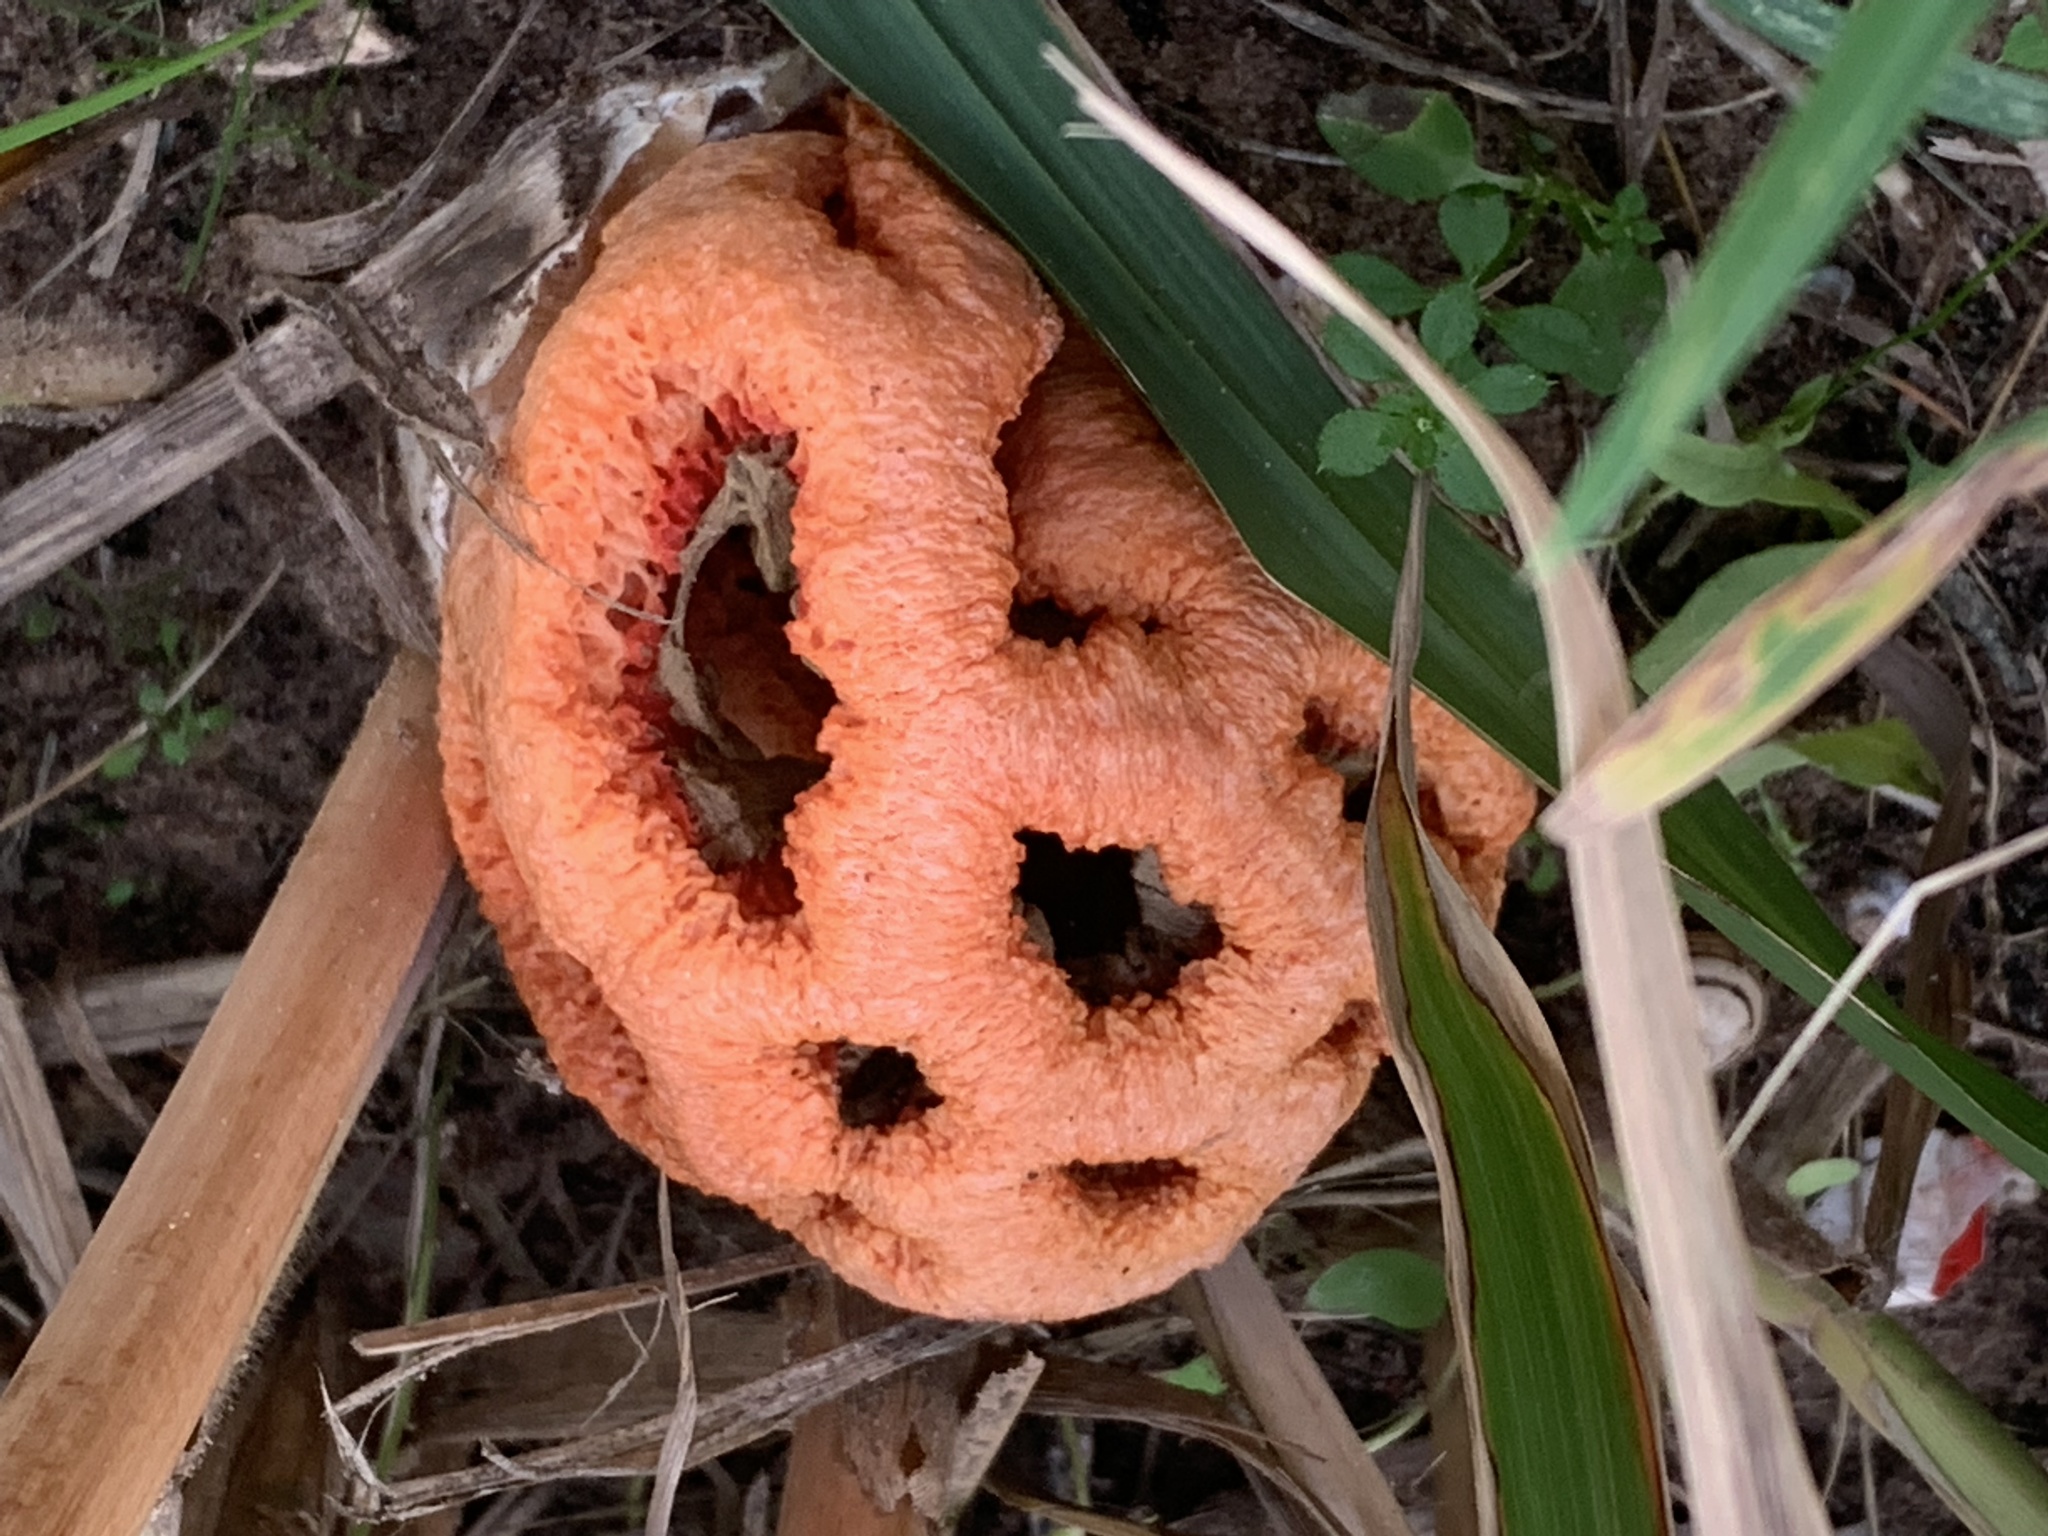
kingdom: Fungi
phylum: Basidiomycota
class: Agaricomycetes
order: Phallales
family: Phallaceae
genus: Clathrus
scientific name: Clathrus ruber
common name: Red cage
